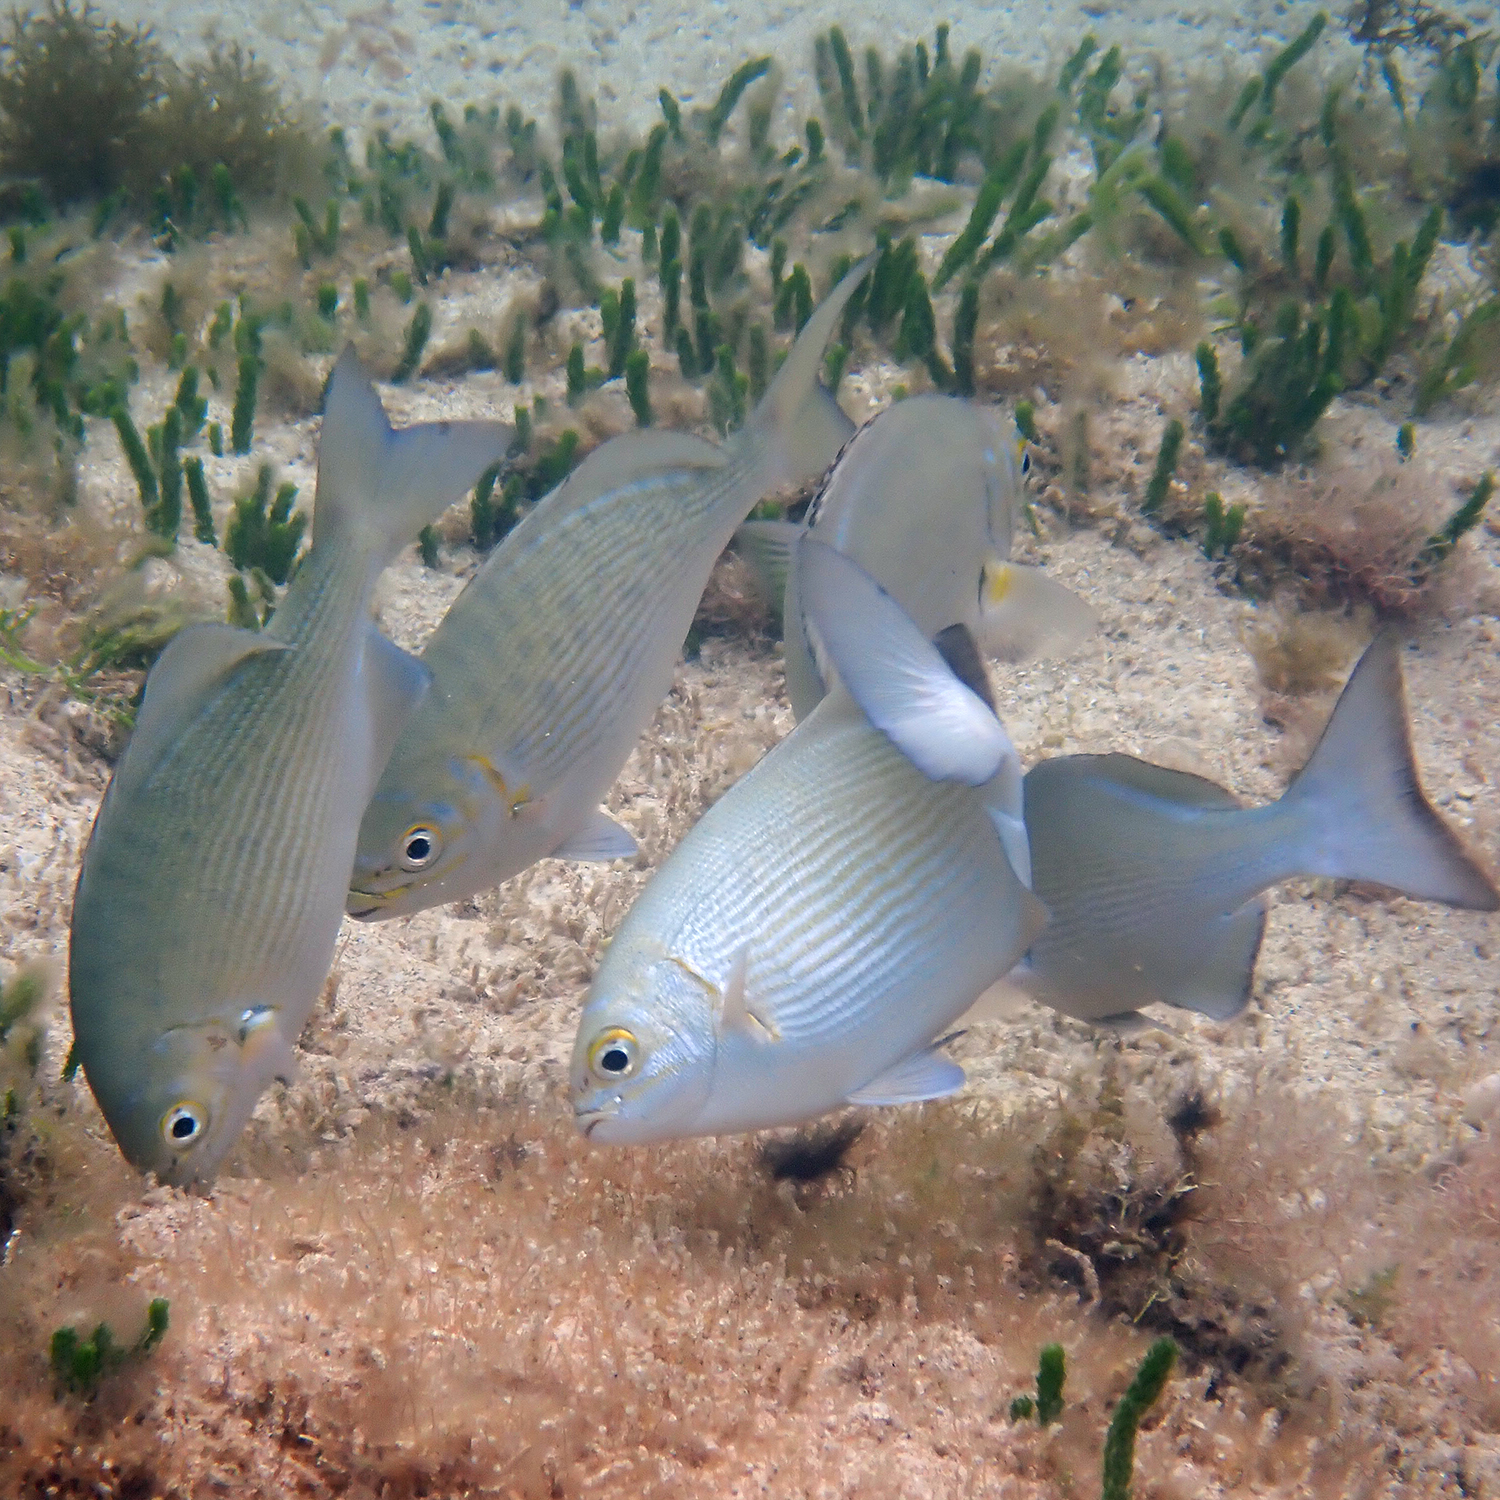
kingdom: Animalia
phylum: Chordata
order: Perciformes
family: Kyphosidae
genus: Kyphosus
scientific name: Kyphosus vaigiensis
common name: Brassy chub
